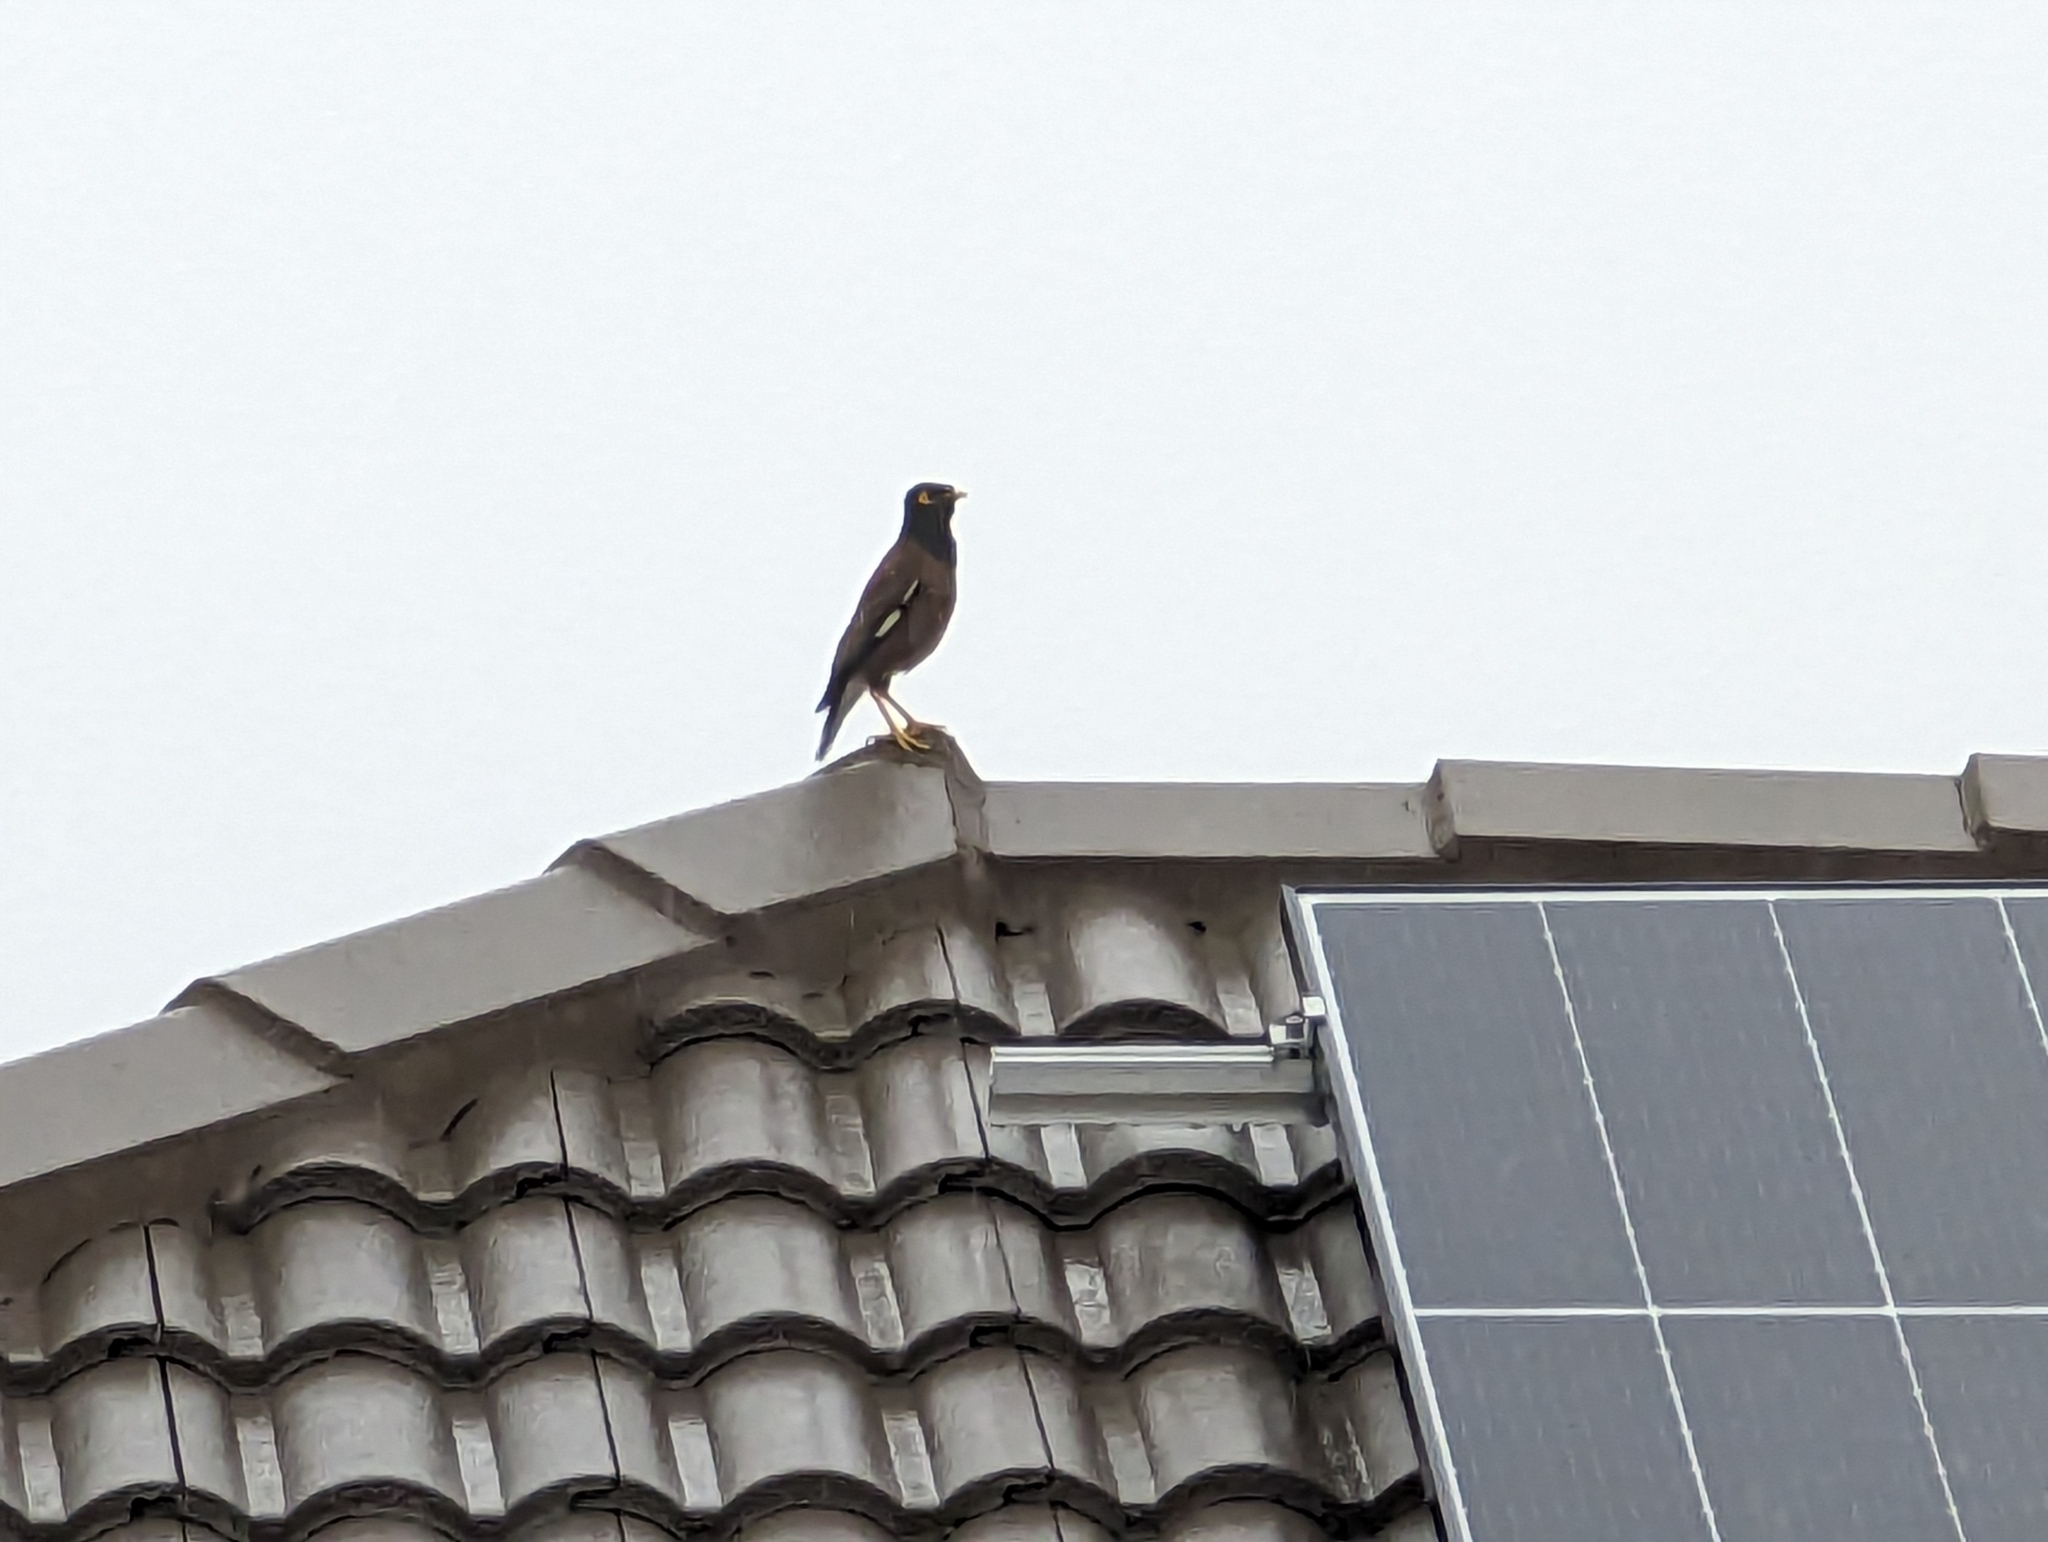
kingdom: Animalia
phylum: Chordata
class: Aves
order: Passeriformes
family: Sturnidae
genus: Acridotheres
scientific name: Acridotheres tristis
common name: Common myna
